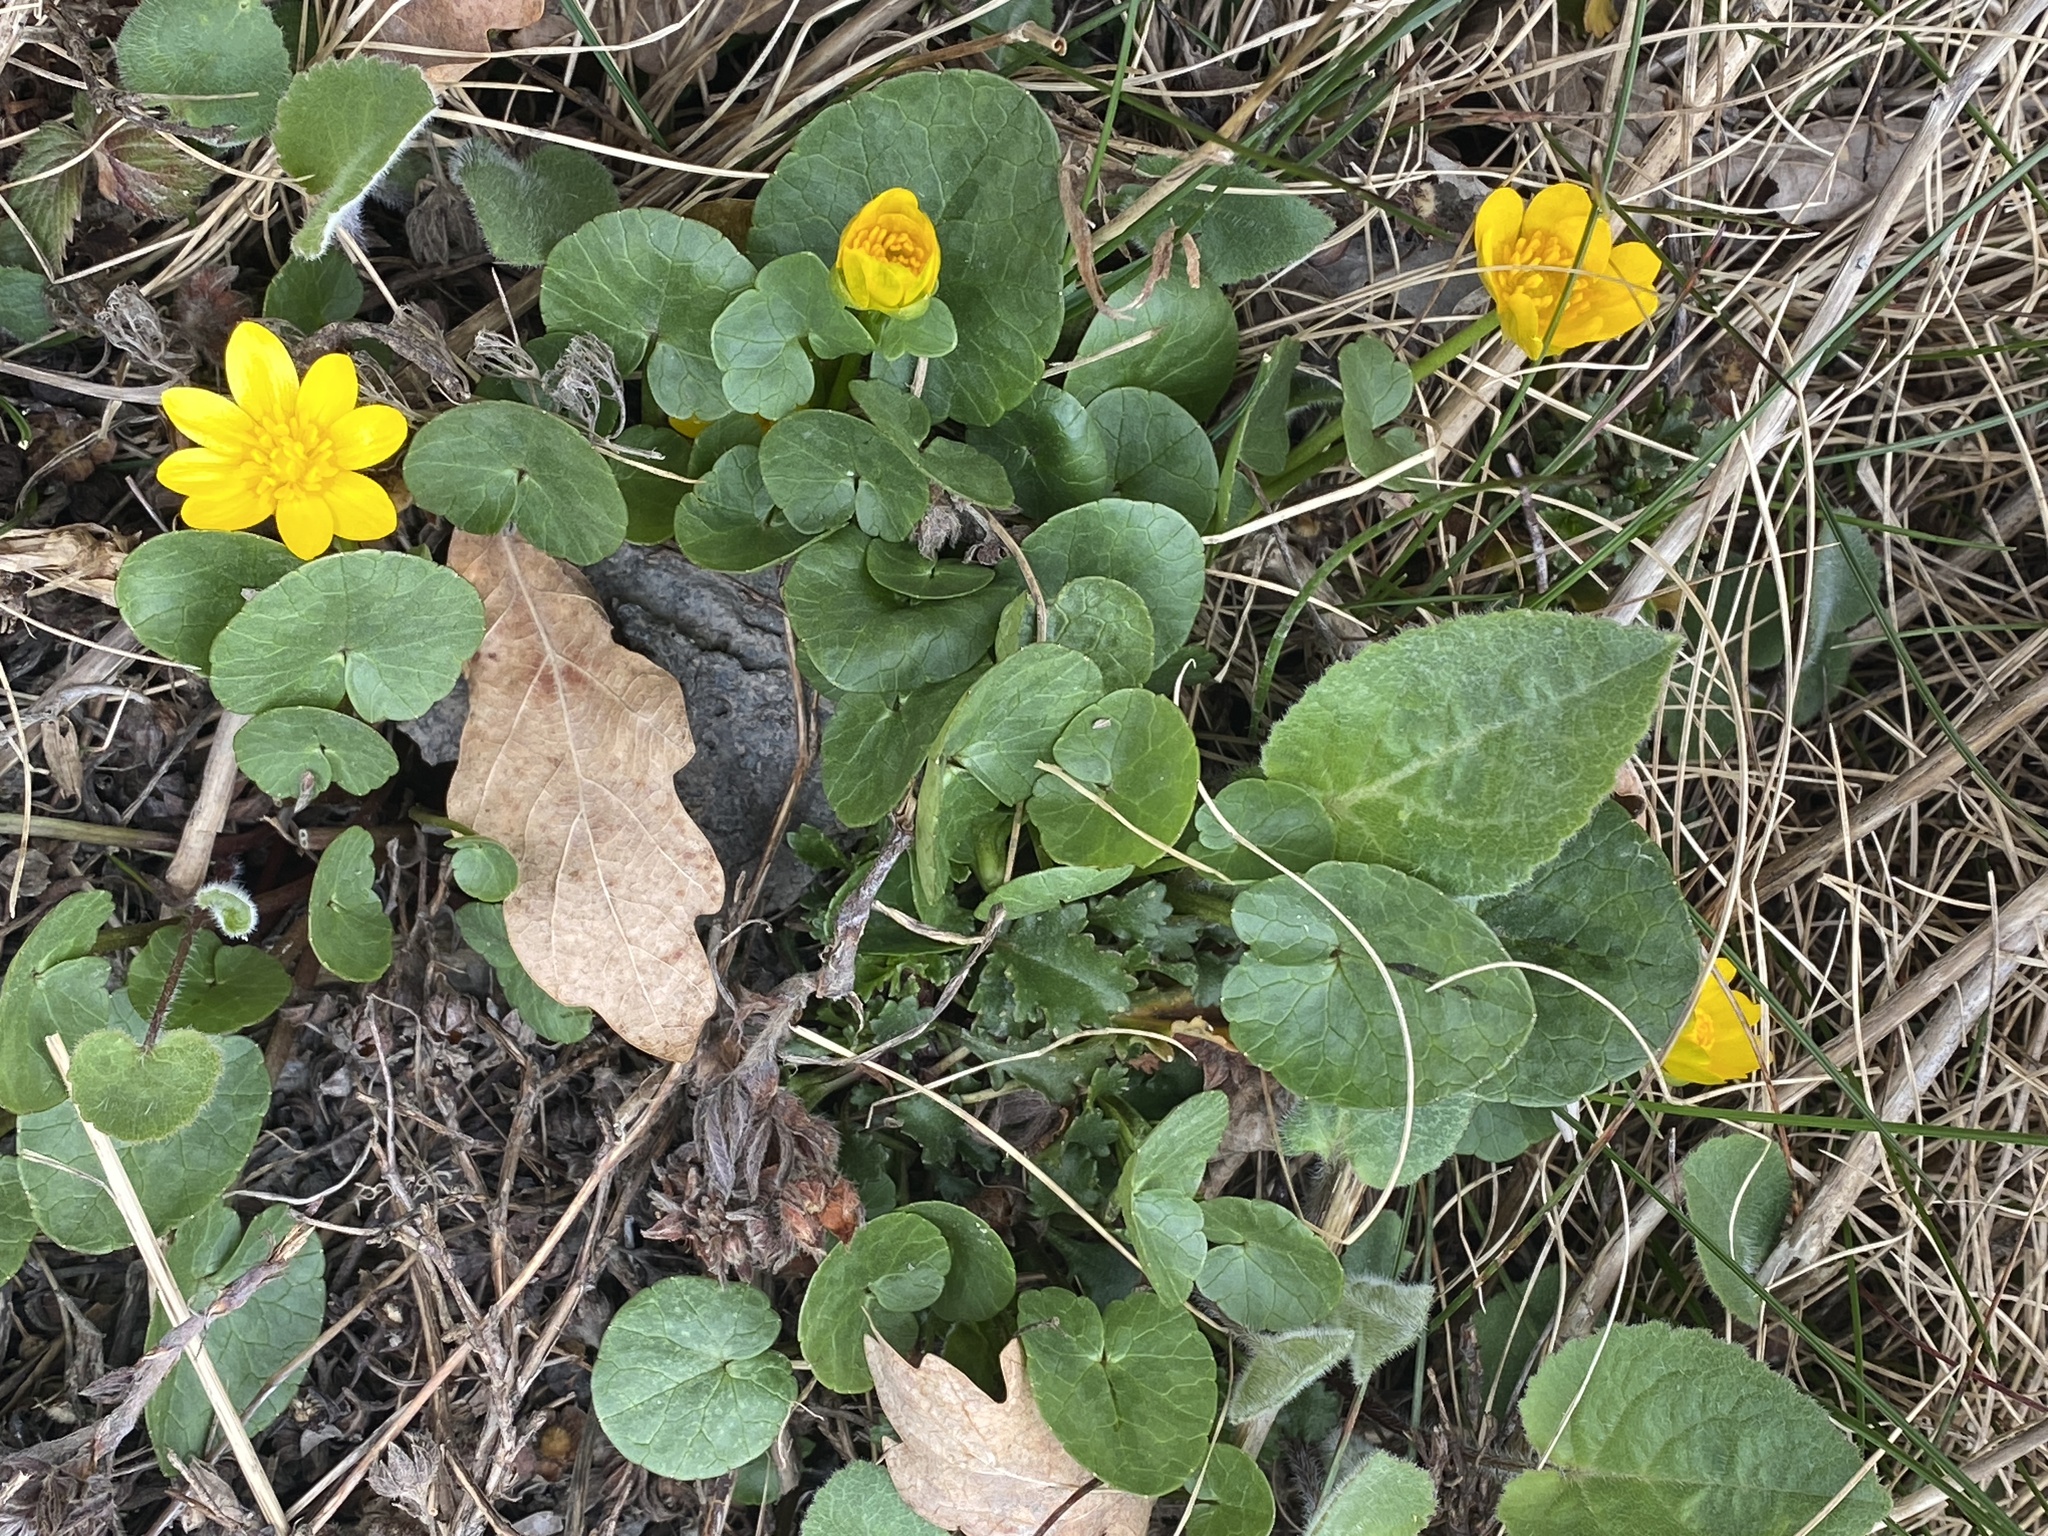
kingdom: Plantae
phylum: Tracheophyta
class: Magnoliopsida
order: Ranunculales
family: Ranunculaceae
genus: Ficaria
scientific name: Ficaria verna
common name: Lesser celandine
